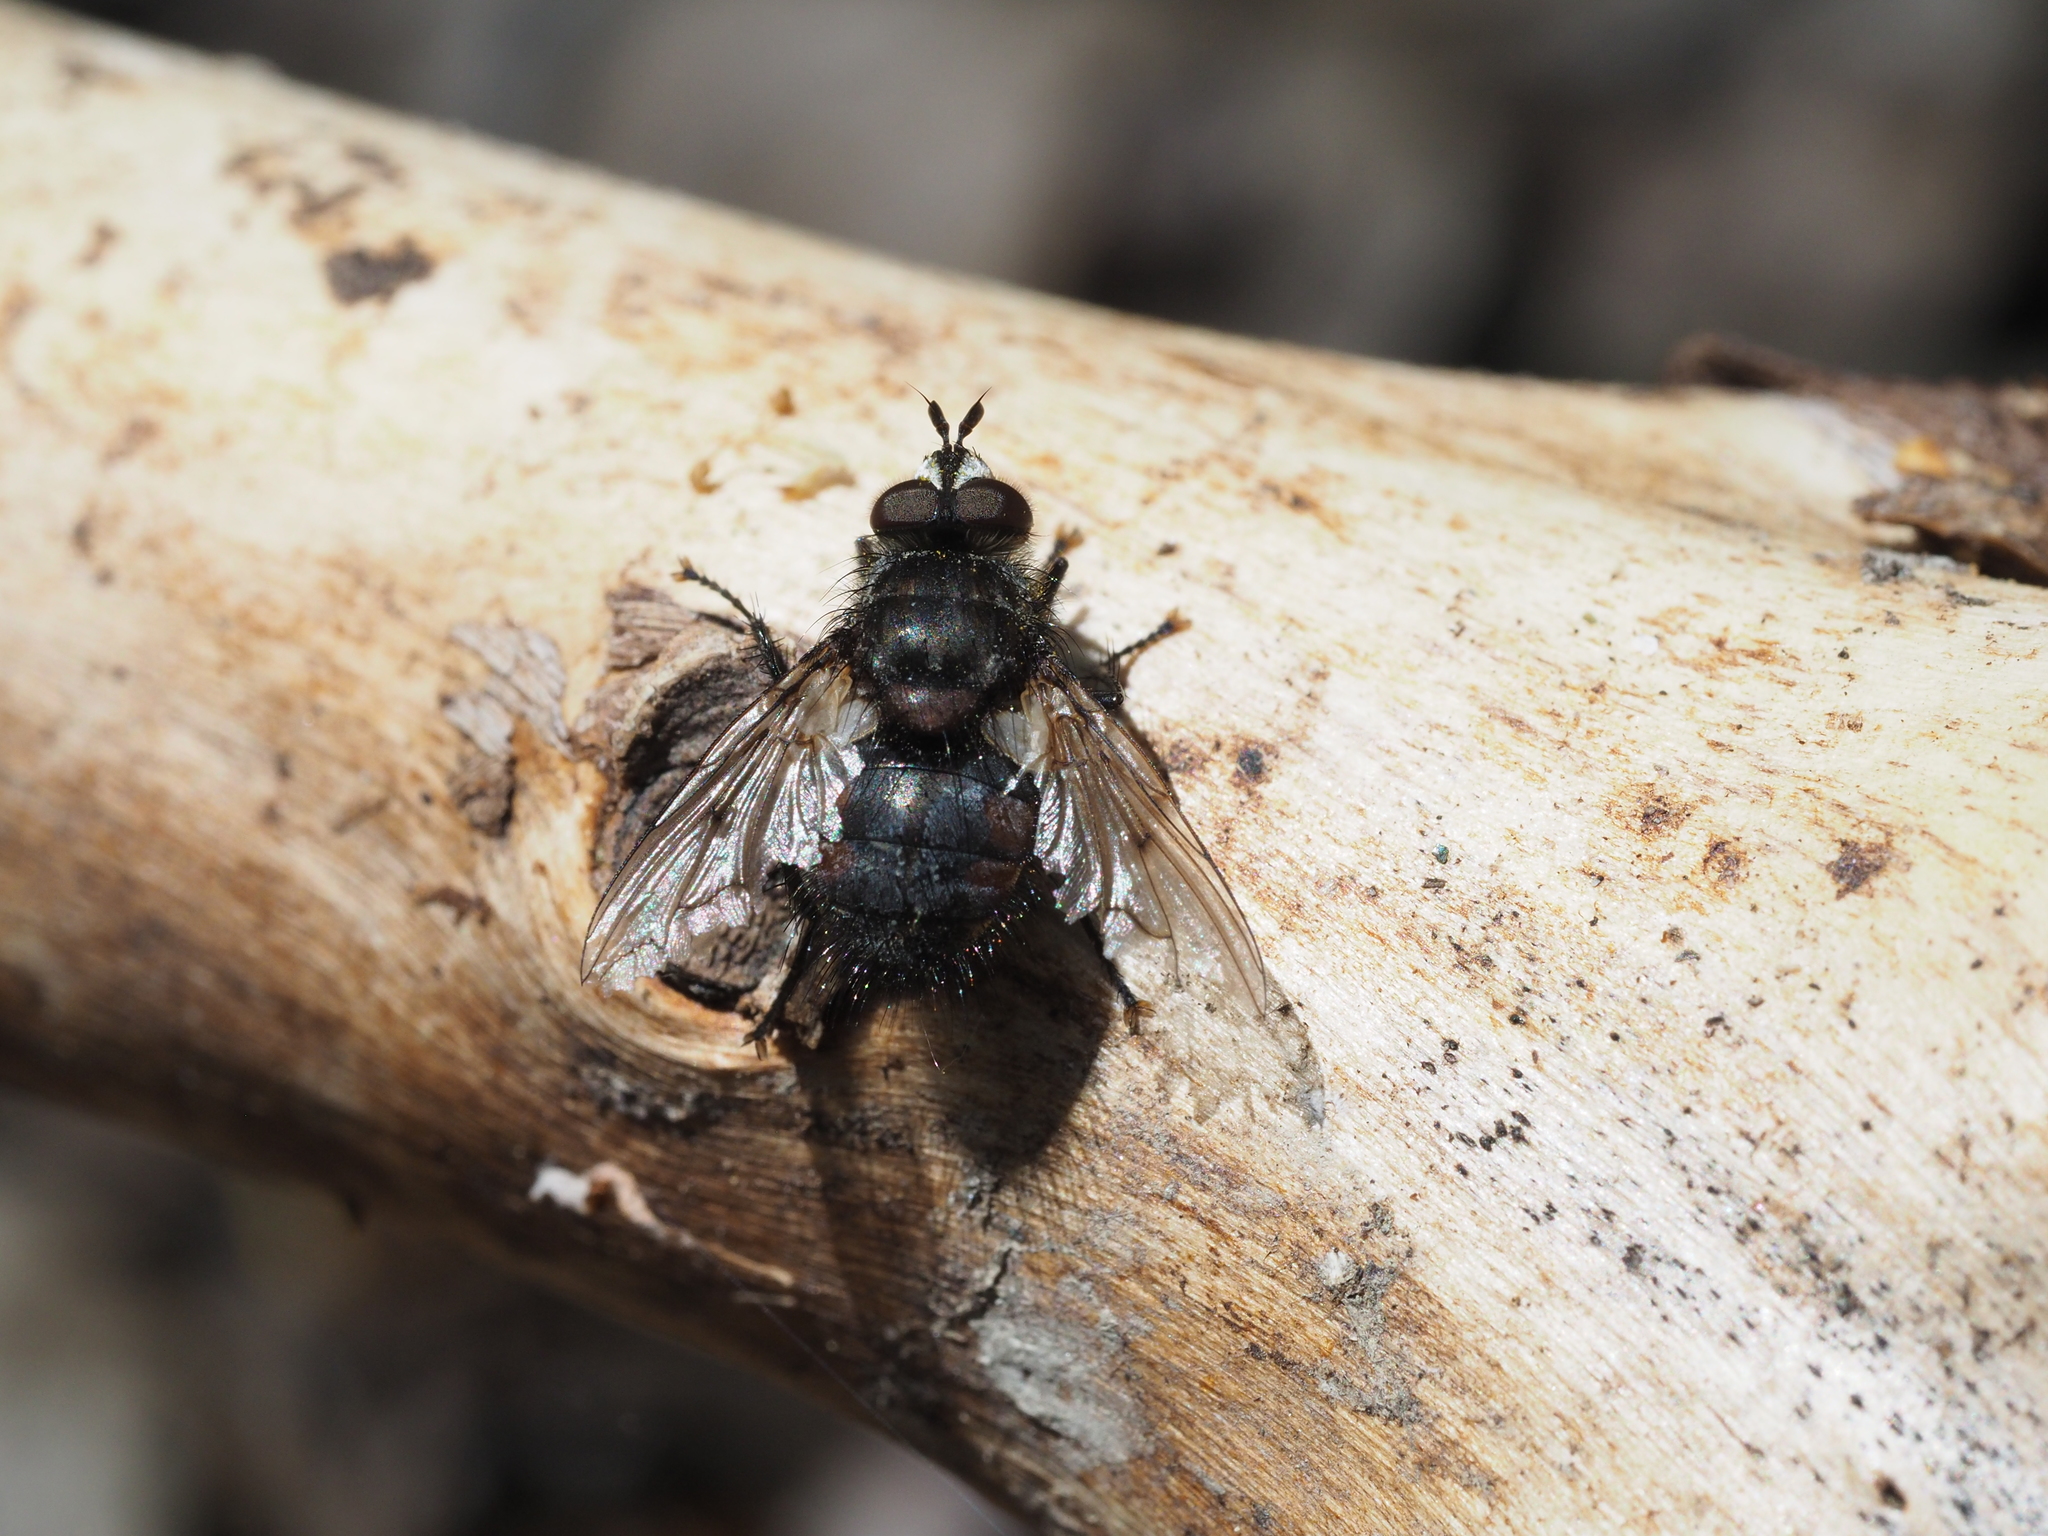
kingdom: Animalia
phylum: Arthropoda
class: Insecta
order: Diptera
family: Tachinidae
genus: Panzeria
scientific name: Panzeria puparum
